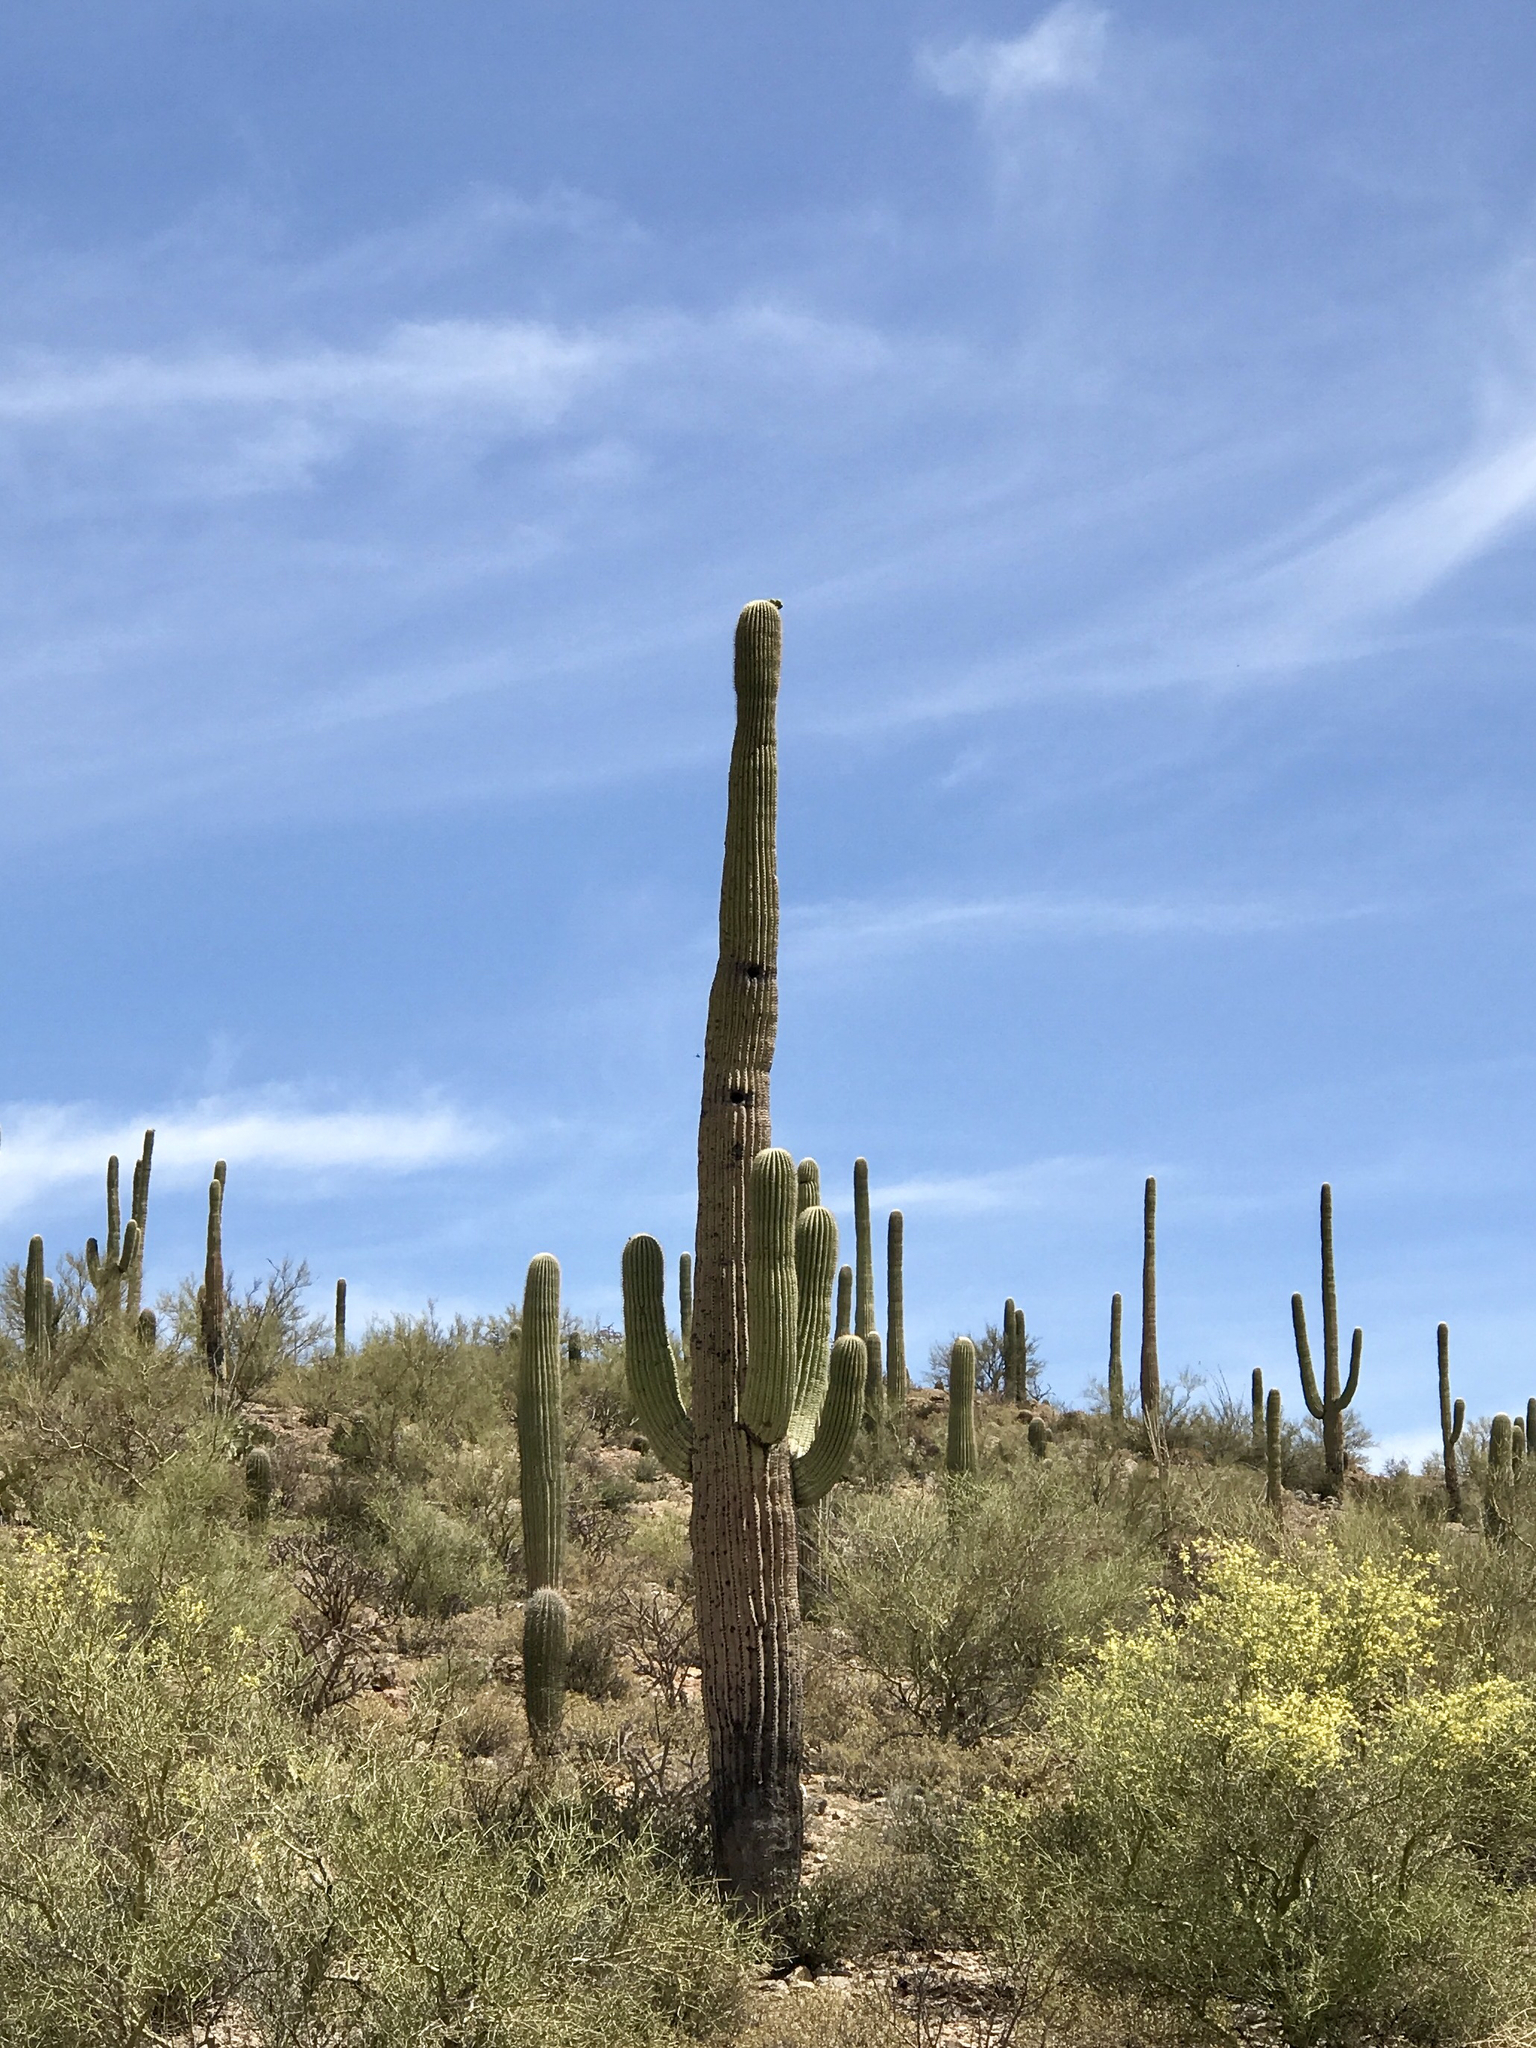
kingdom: Plantae
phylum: Tracheophyta
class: Magnoliopsida
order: Caryophyllales
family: Cactaceae
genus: Carnegiea
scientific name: Carnegiea gigantea
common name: Saguaro
